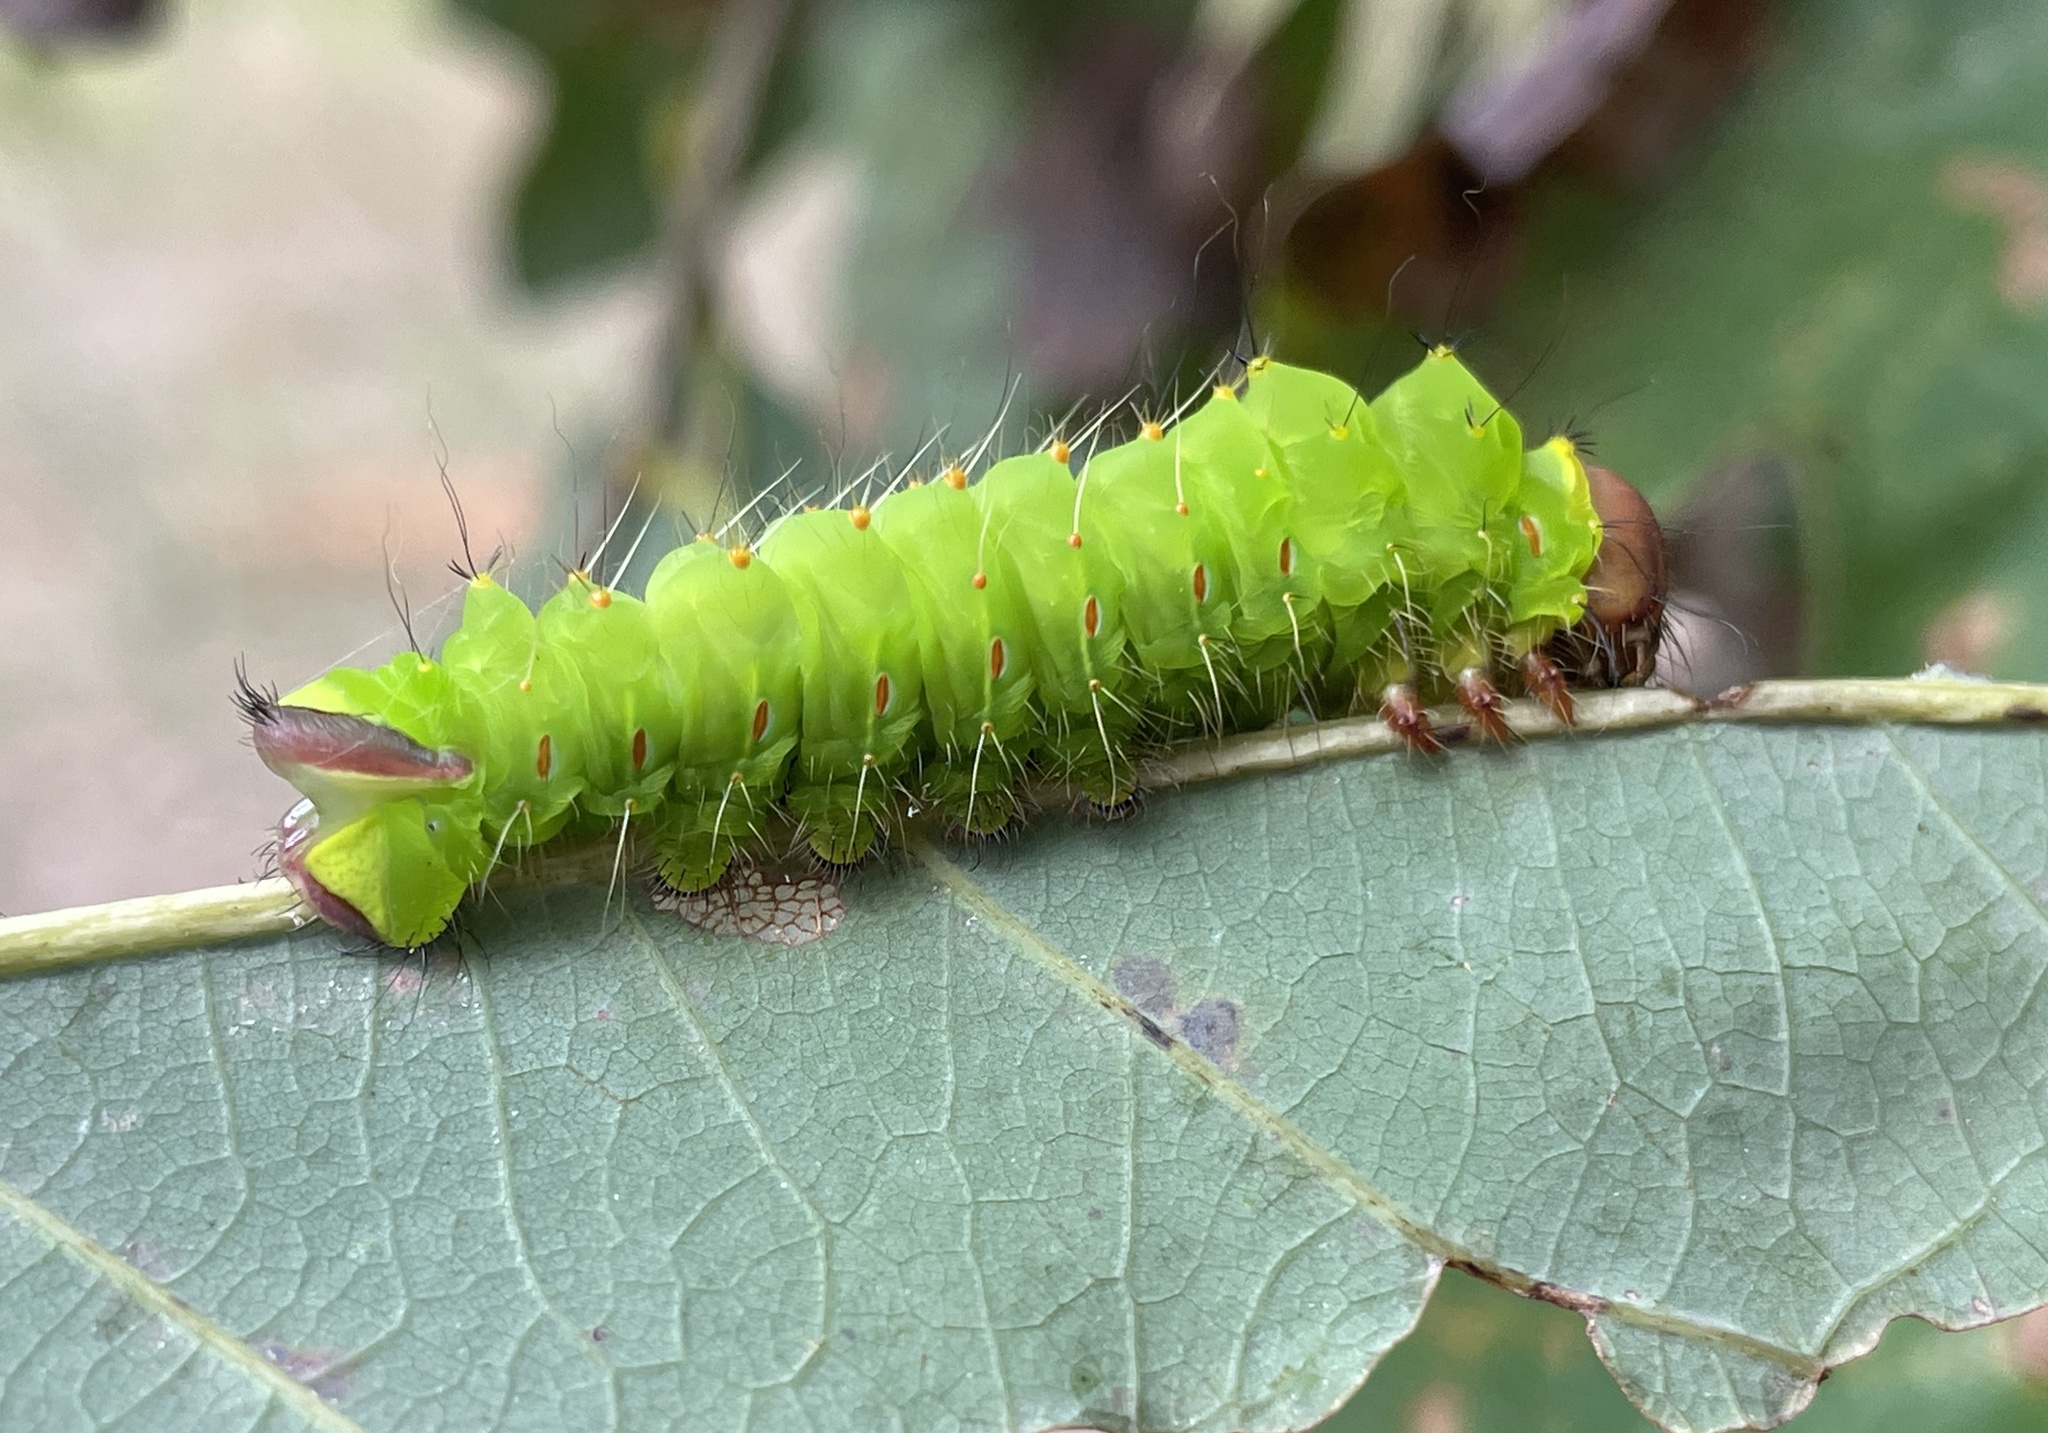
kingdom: Animalia
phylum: Arthropoda
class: Insecta
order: Lepidoptera
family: Saturniidae
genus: Antheraea
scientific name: Antheraea polyphemus
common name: Polyphemus moth
